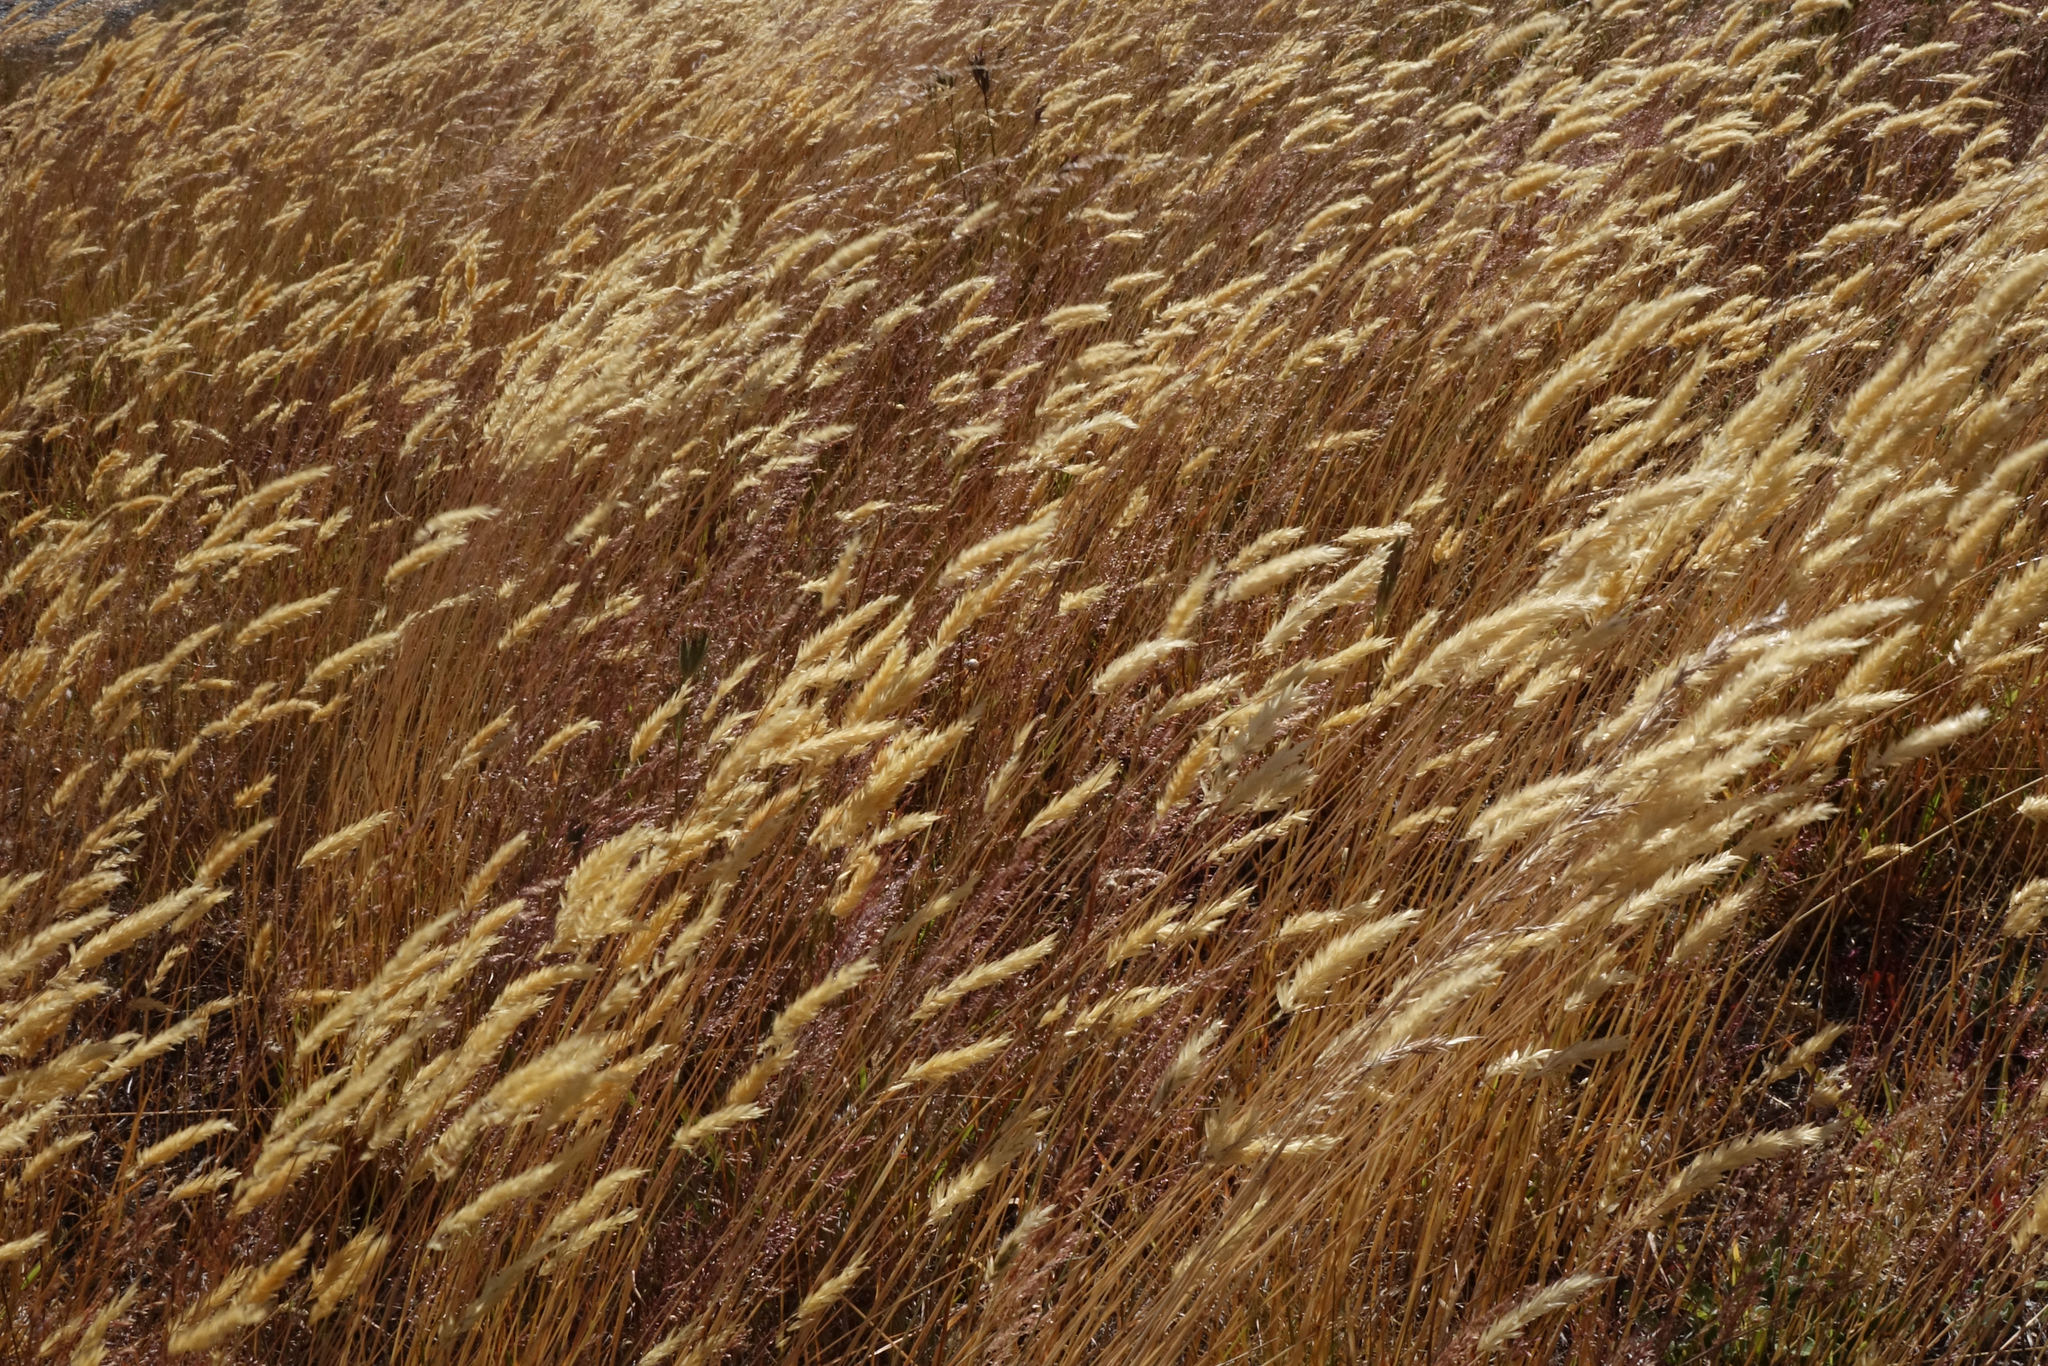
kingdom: Plantae
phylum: Tracheophyta
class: Liliopsida
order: Poales
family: Poaceae
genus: Anthoxanthum
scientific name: Anthoxanthum odoratum
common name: Sweet vernalgrass
